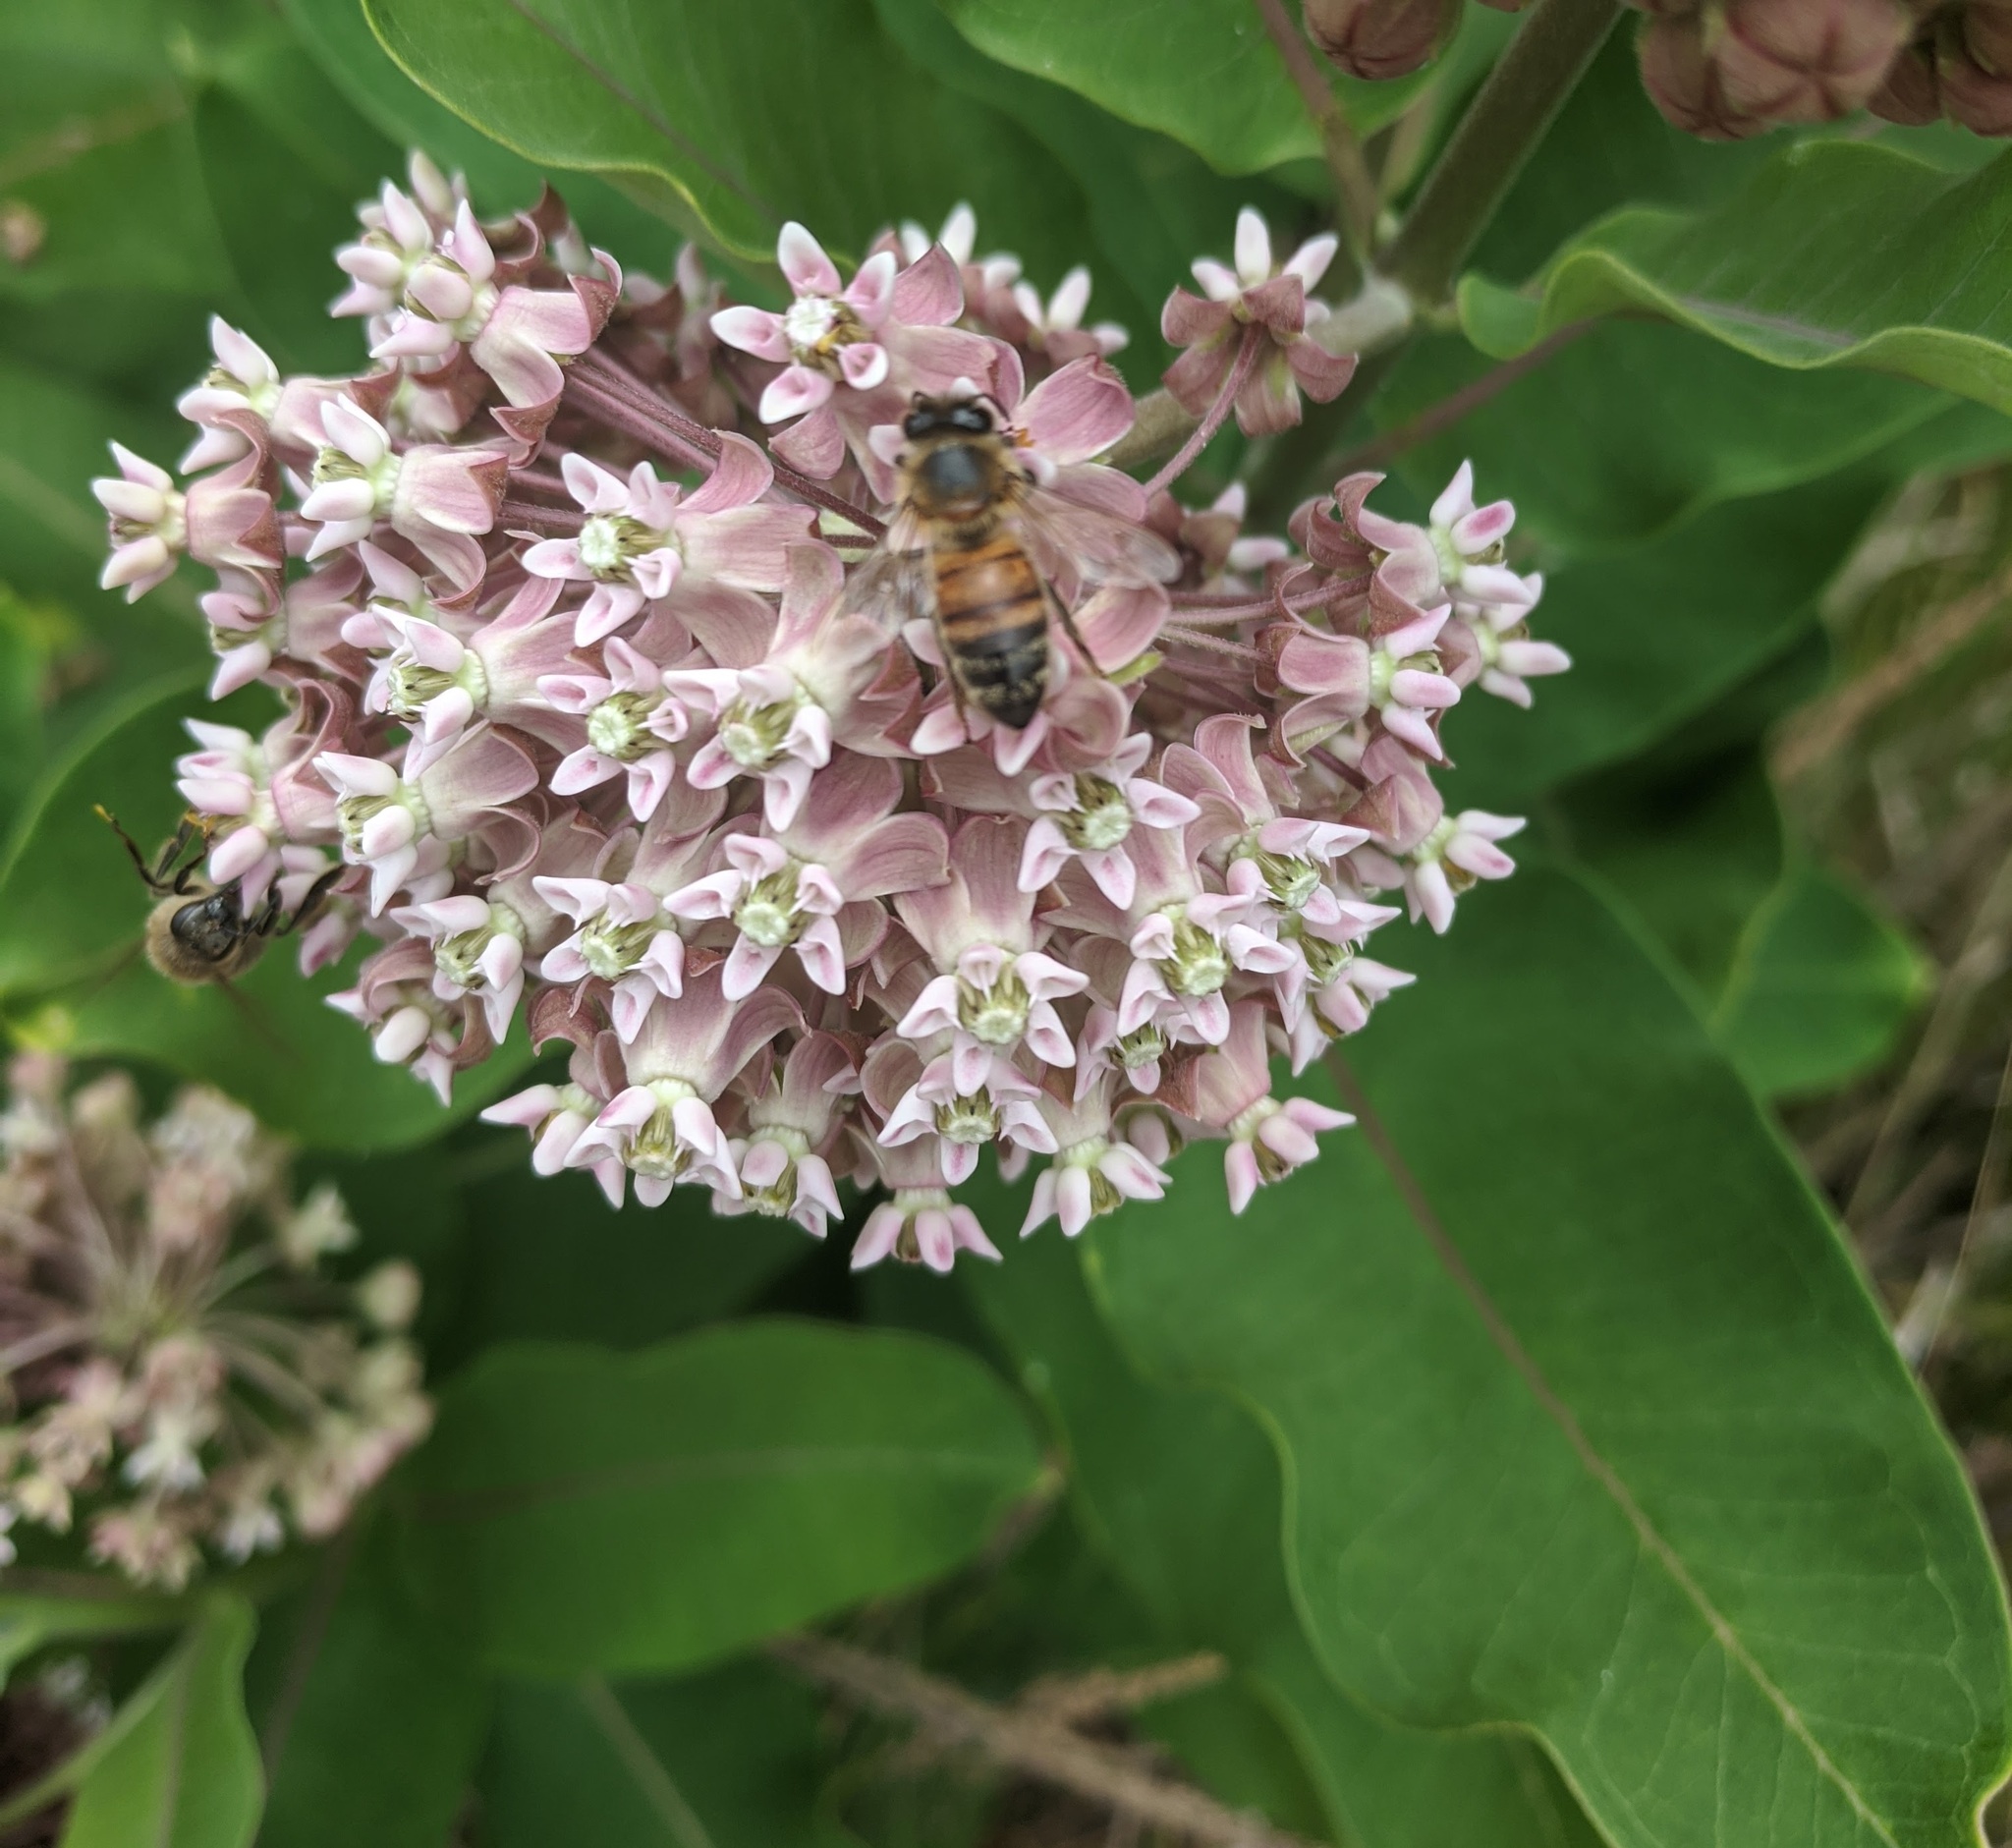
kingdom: Animalia
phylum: Arthropoda
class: Insecta
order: Hymenoptera
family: Apidae
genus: Apis
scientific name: Apis mellifera
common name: Honey bee
